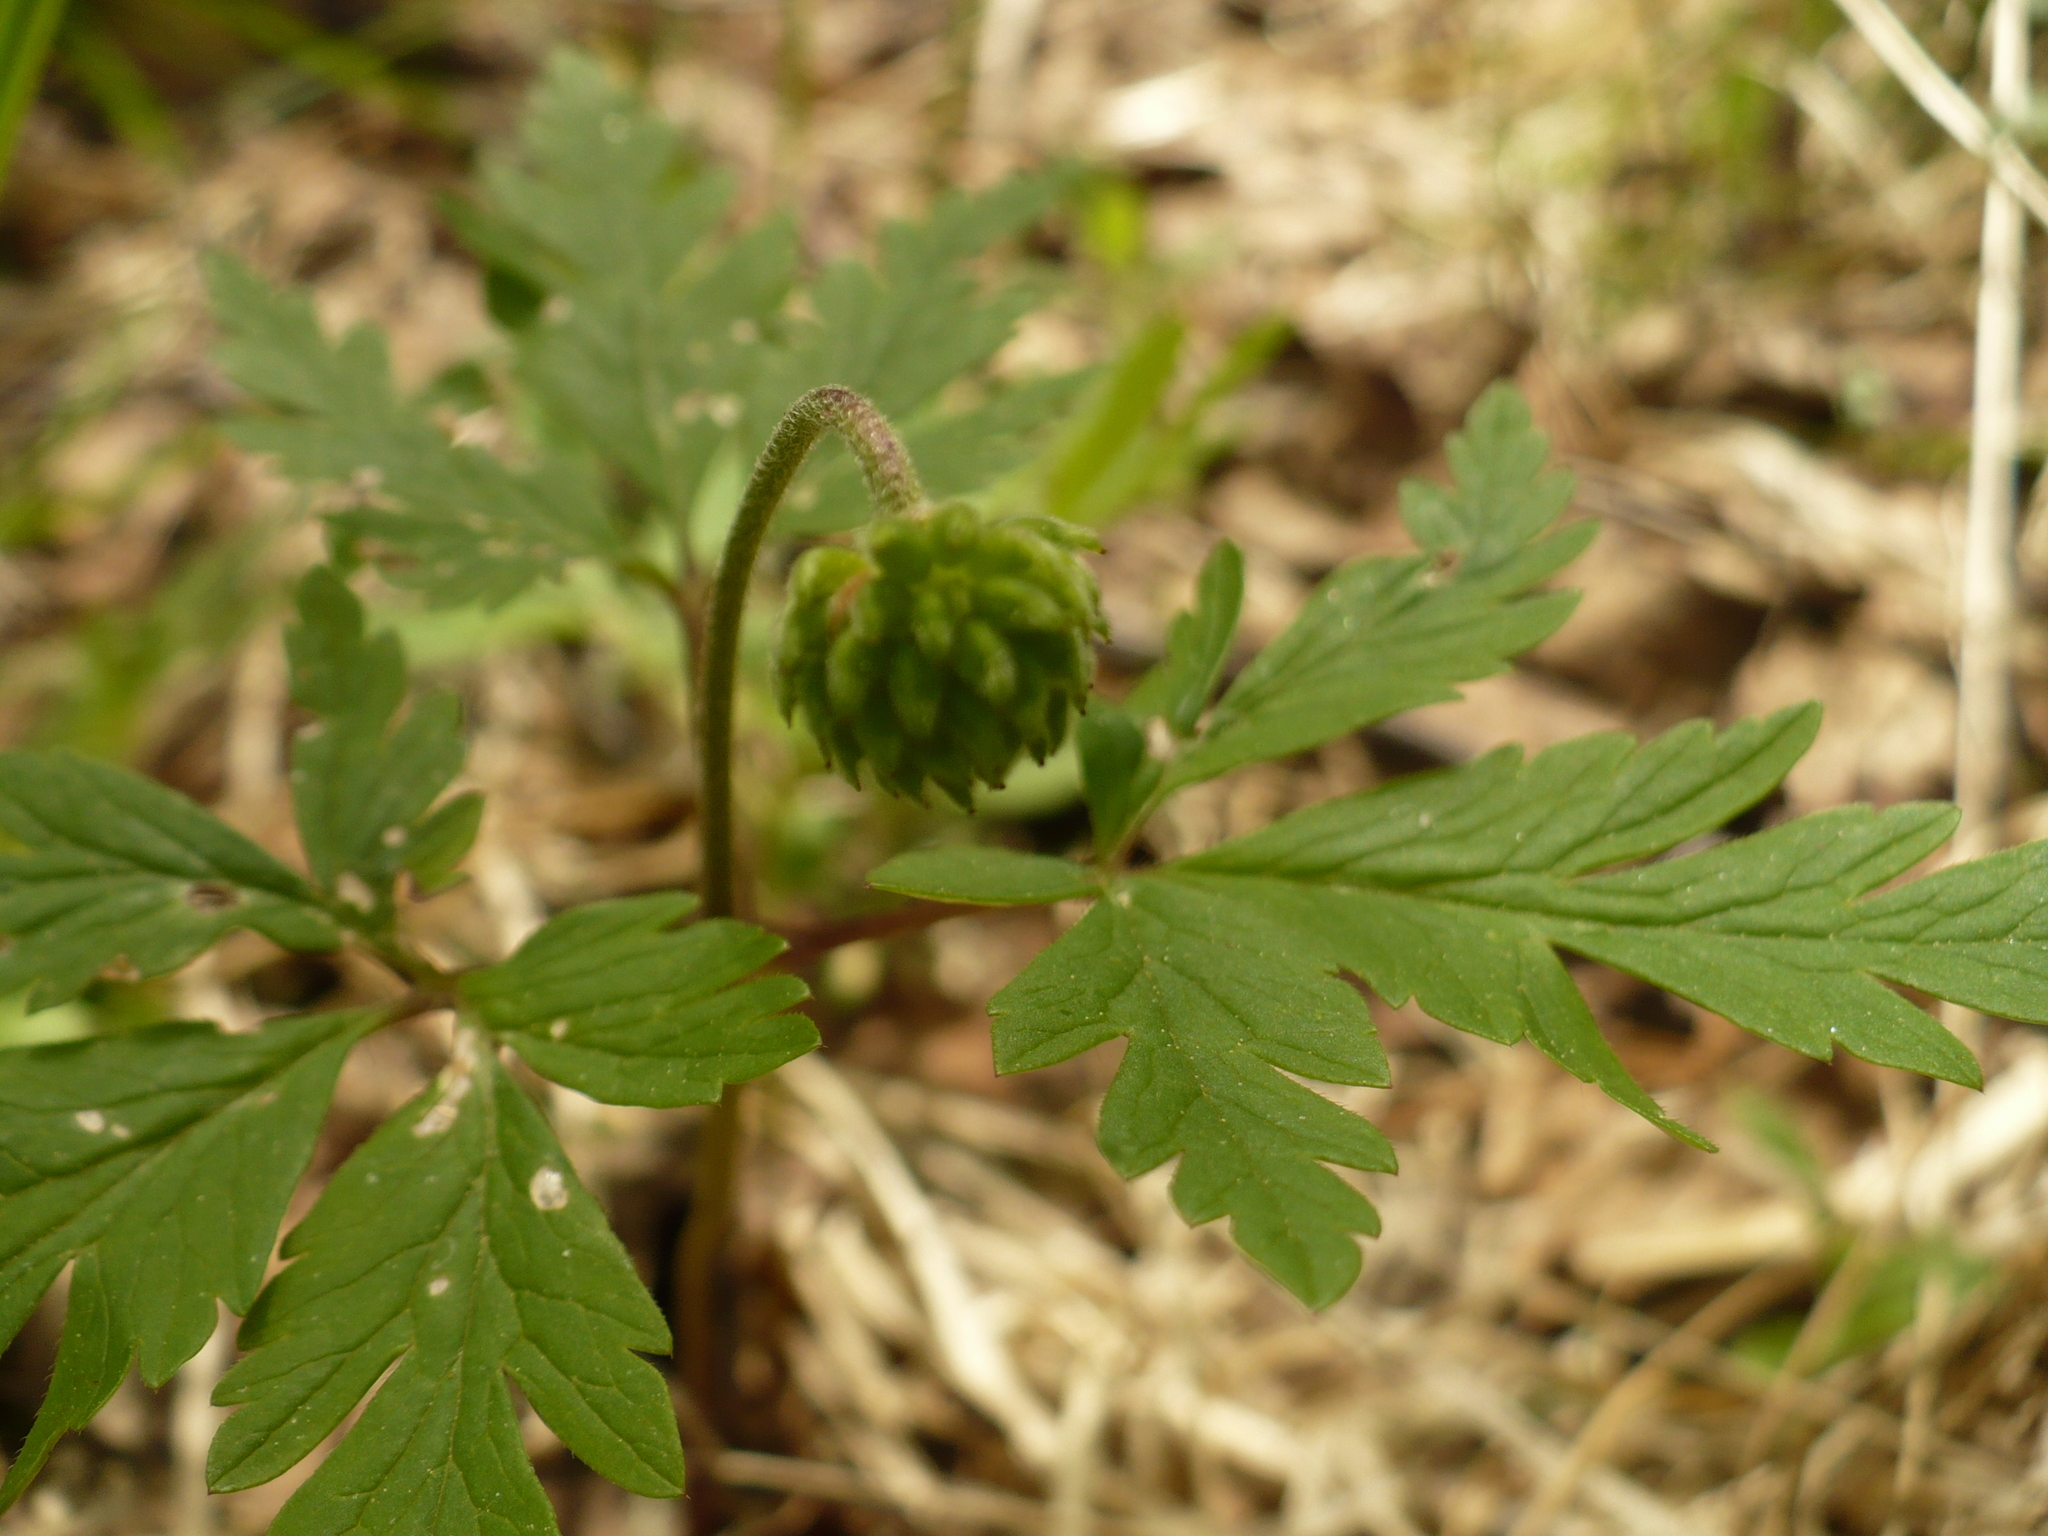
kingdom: Plantae
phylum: Tracheophyta
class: Magnoliopsida
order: Ranunculales
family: Ranunculaceae
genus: Anemone
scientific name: Anemone altaica
